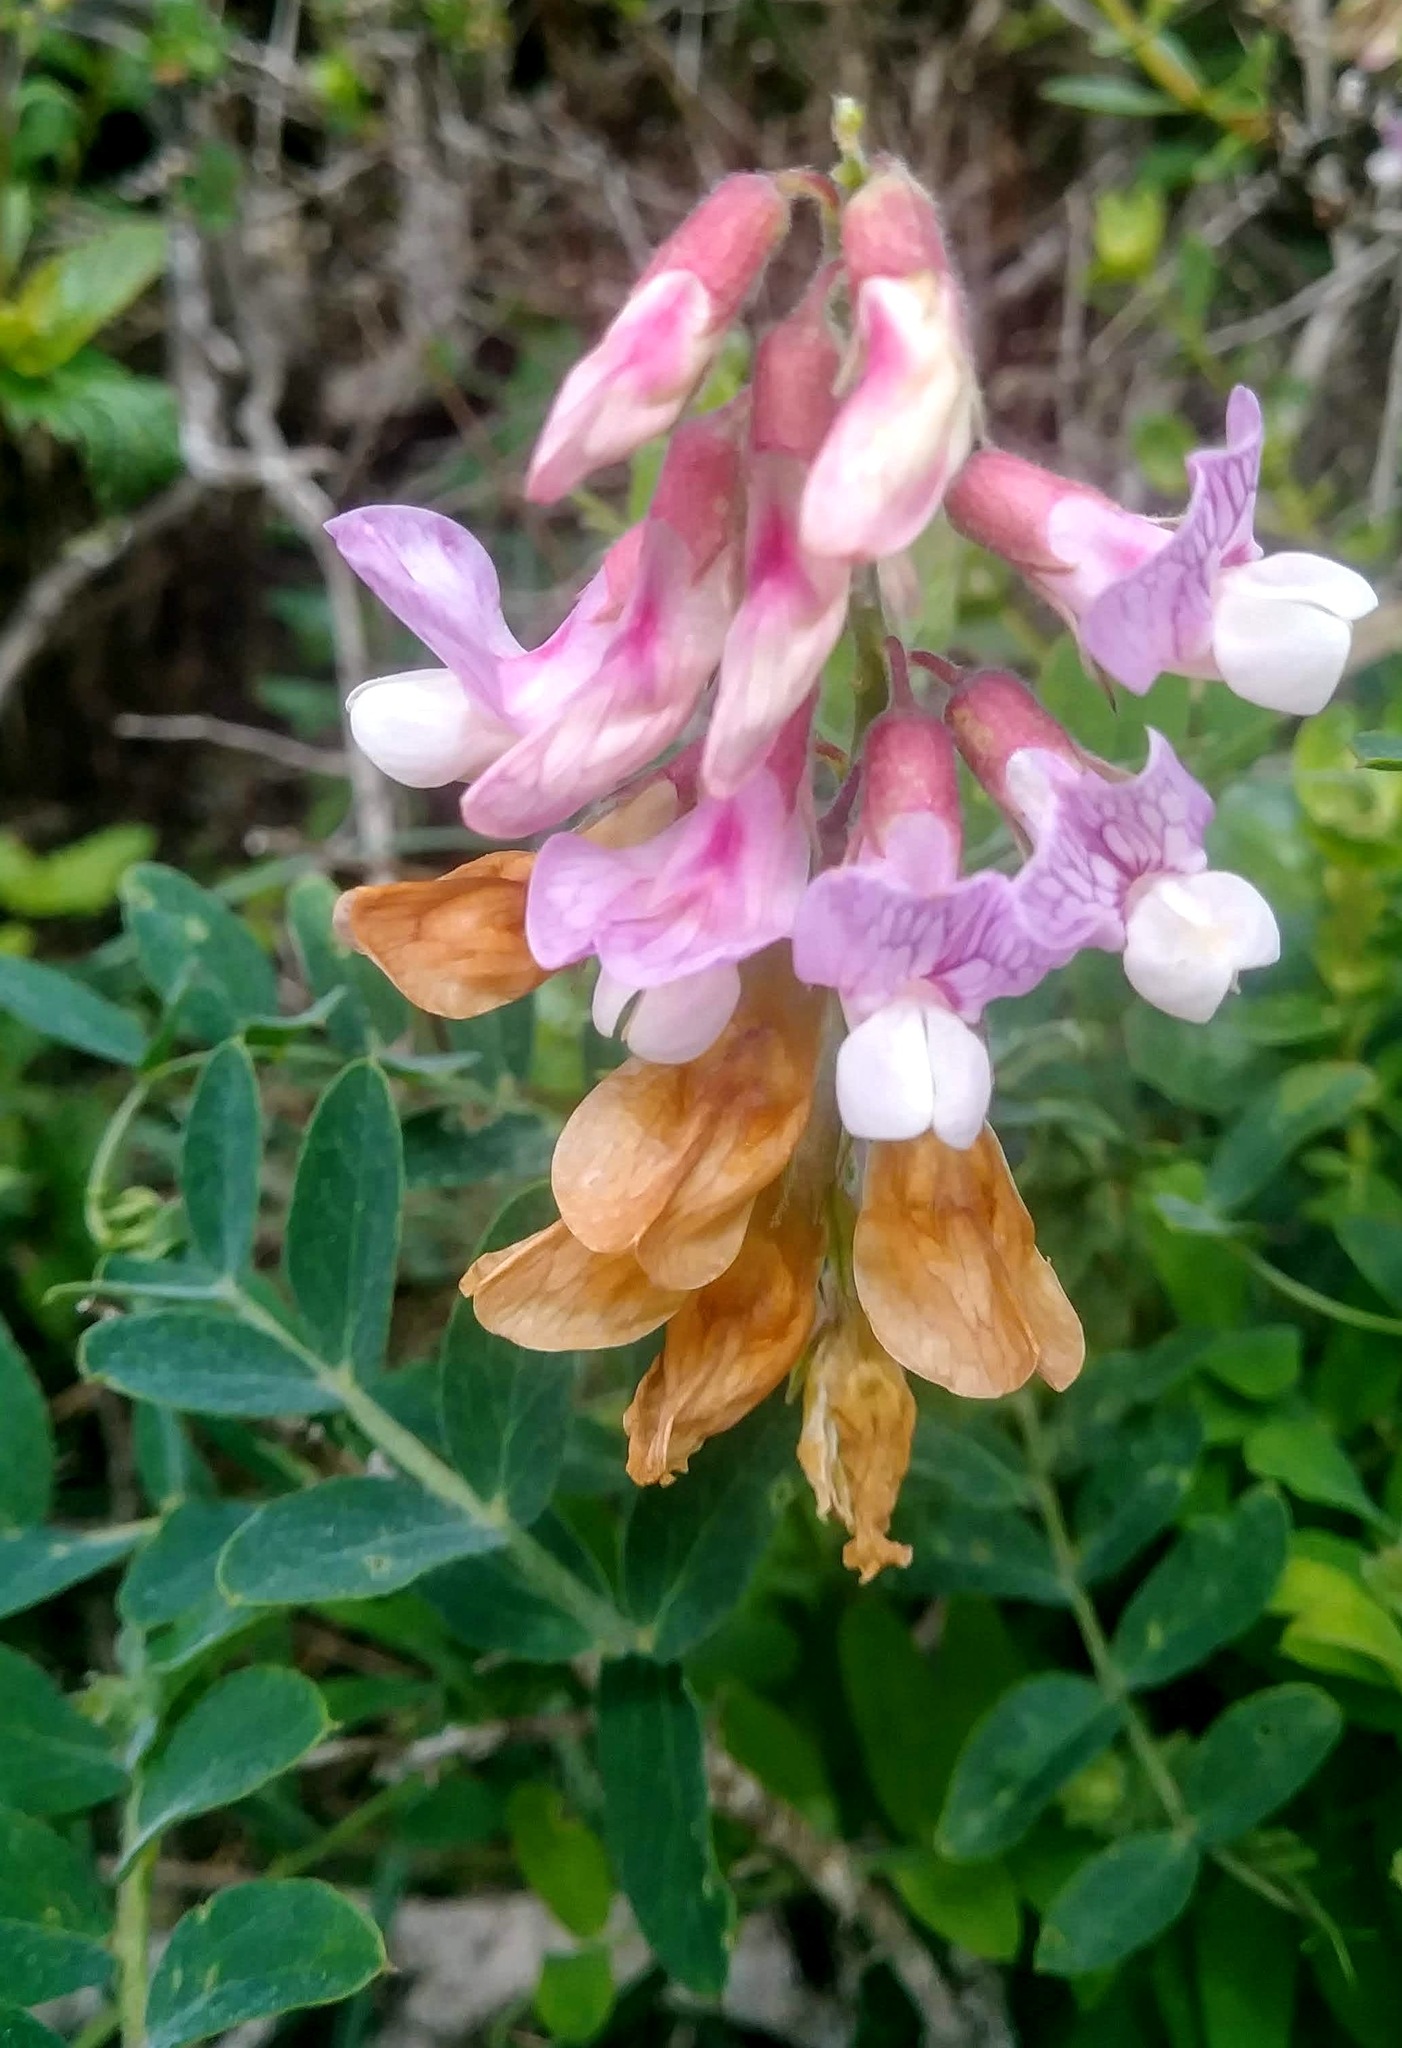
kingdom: Plantae
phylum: Tracheophyta
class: Magnoliopsida
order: Fabales
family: Fabaceae
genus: Lathyrus
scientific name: Lathyrus vestitus
